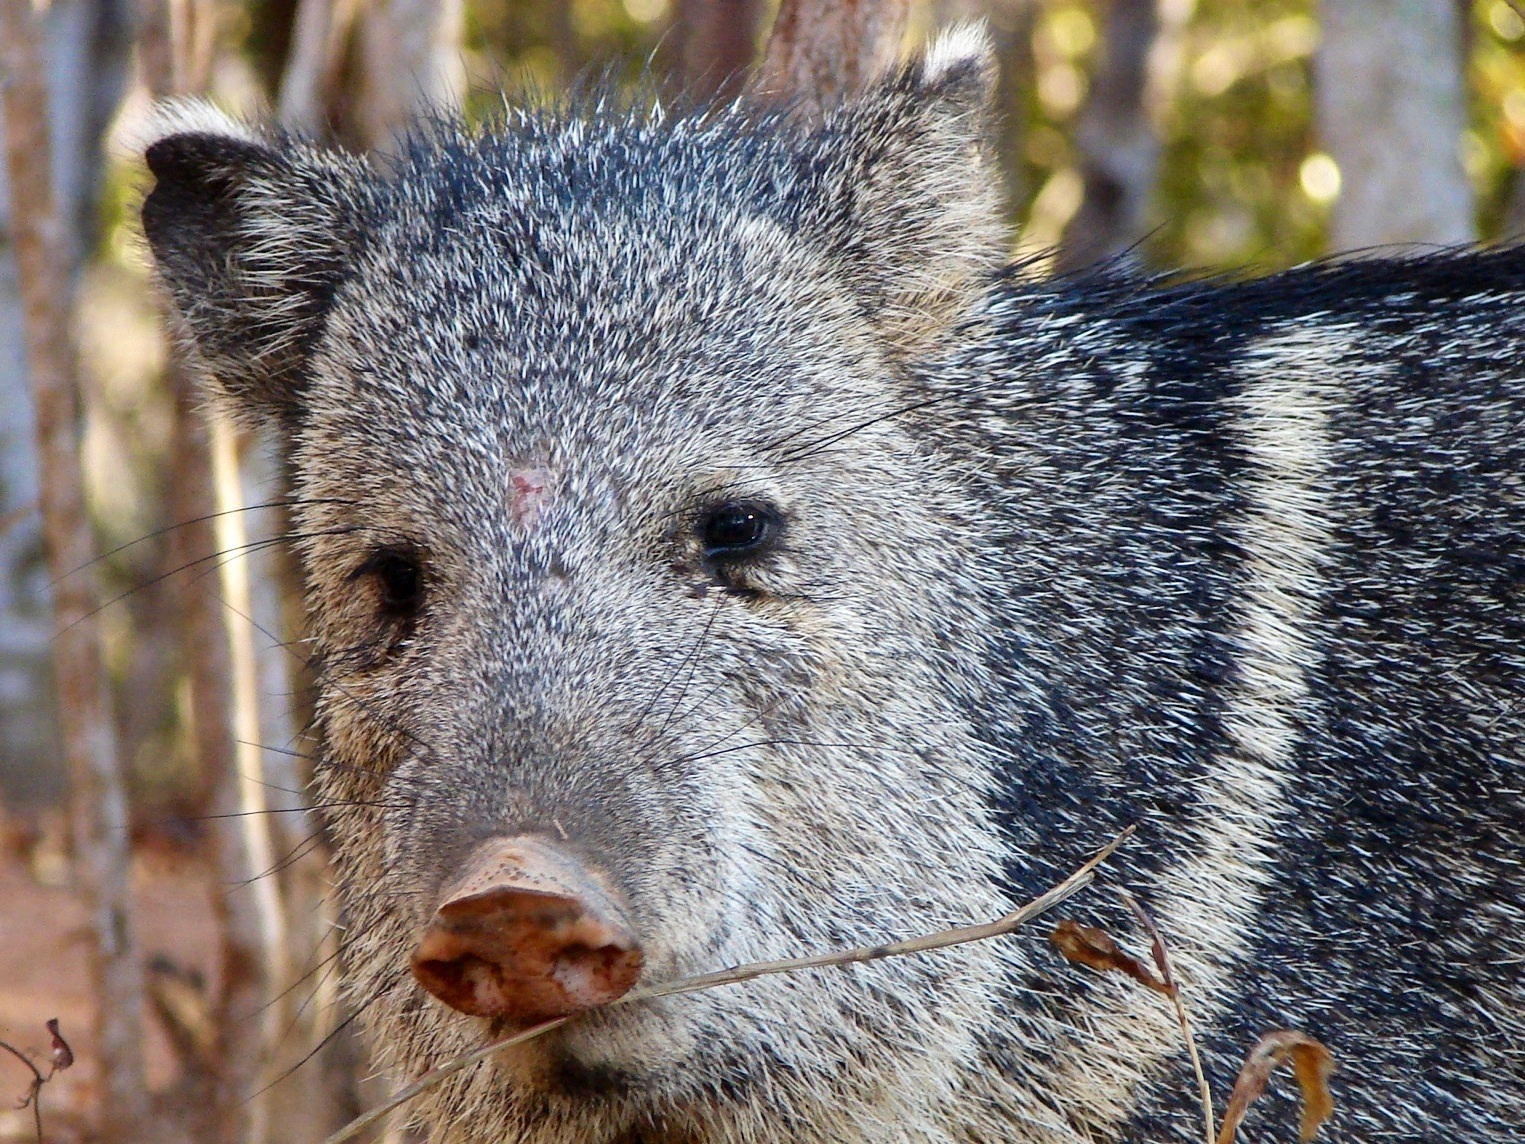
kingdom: Animalia
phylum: Chordata
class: Mammalia
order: Artiodactyla
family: Tayassuidae
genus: Pecari
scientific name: Pecari tajacu
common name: Collared peccary
